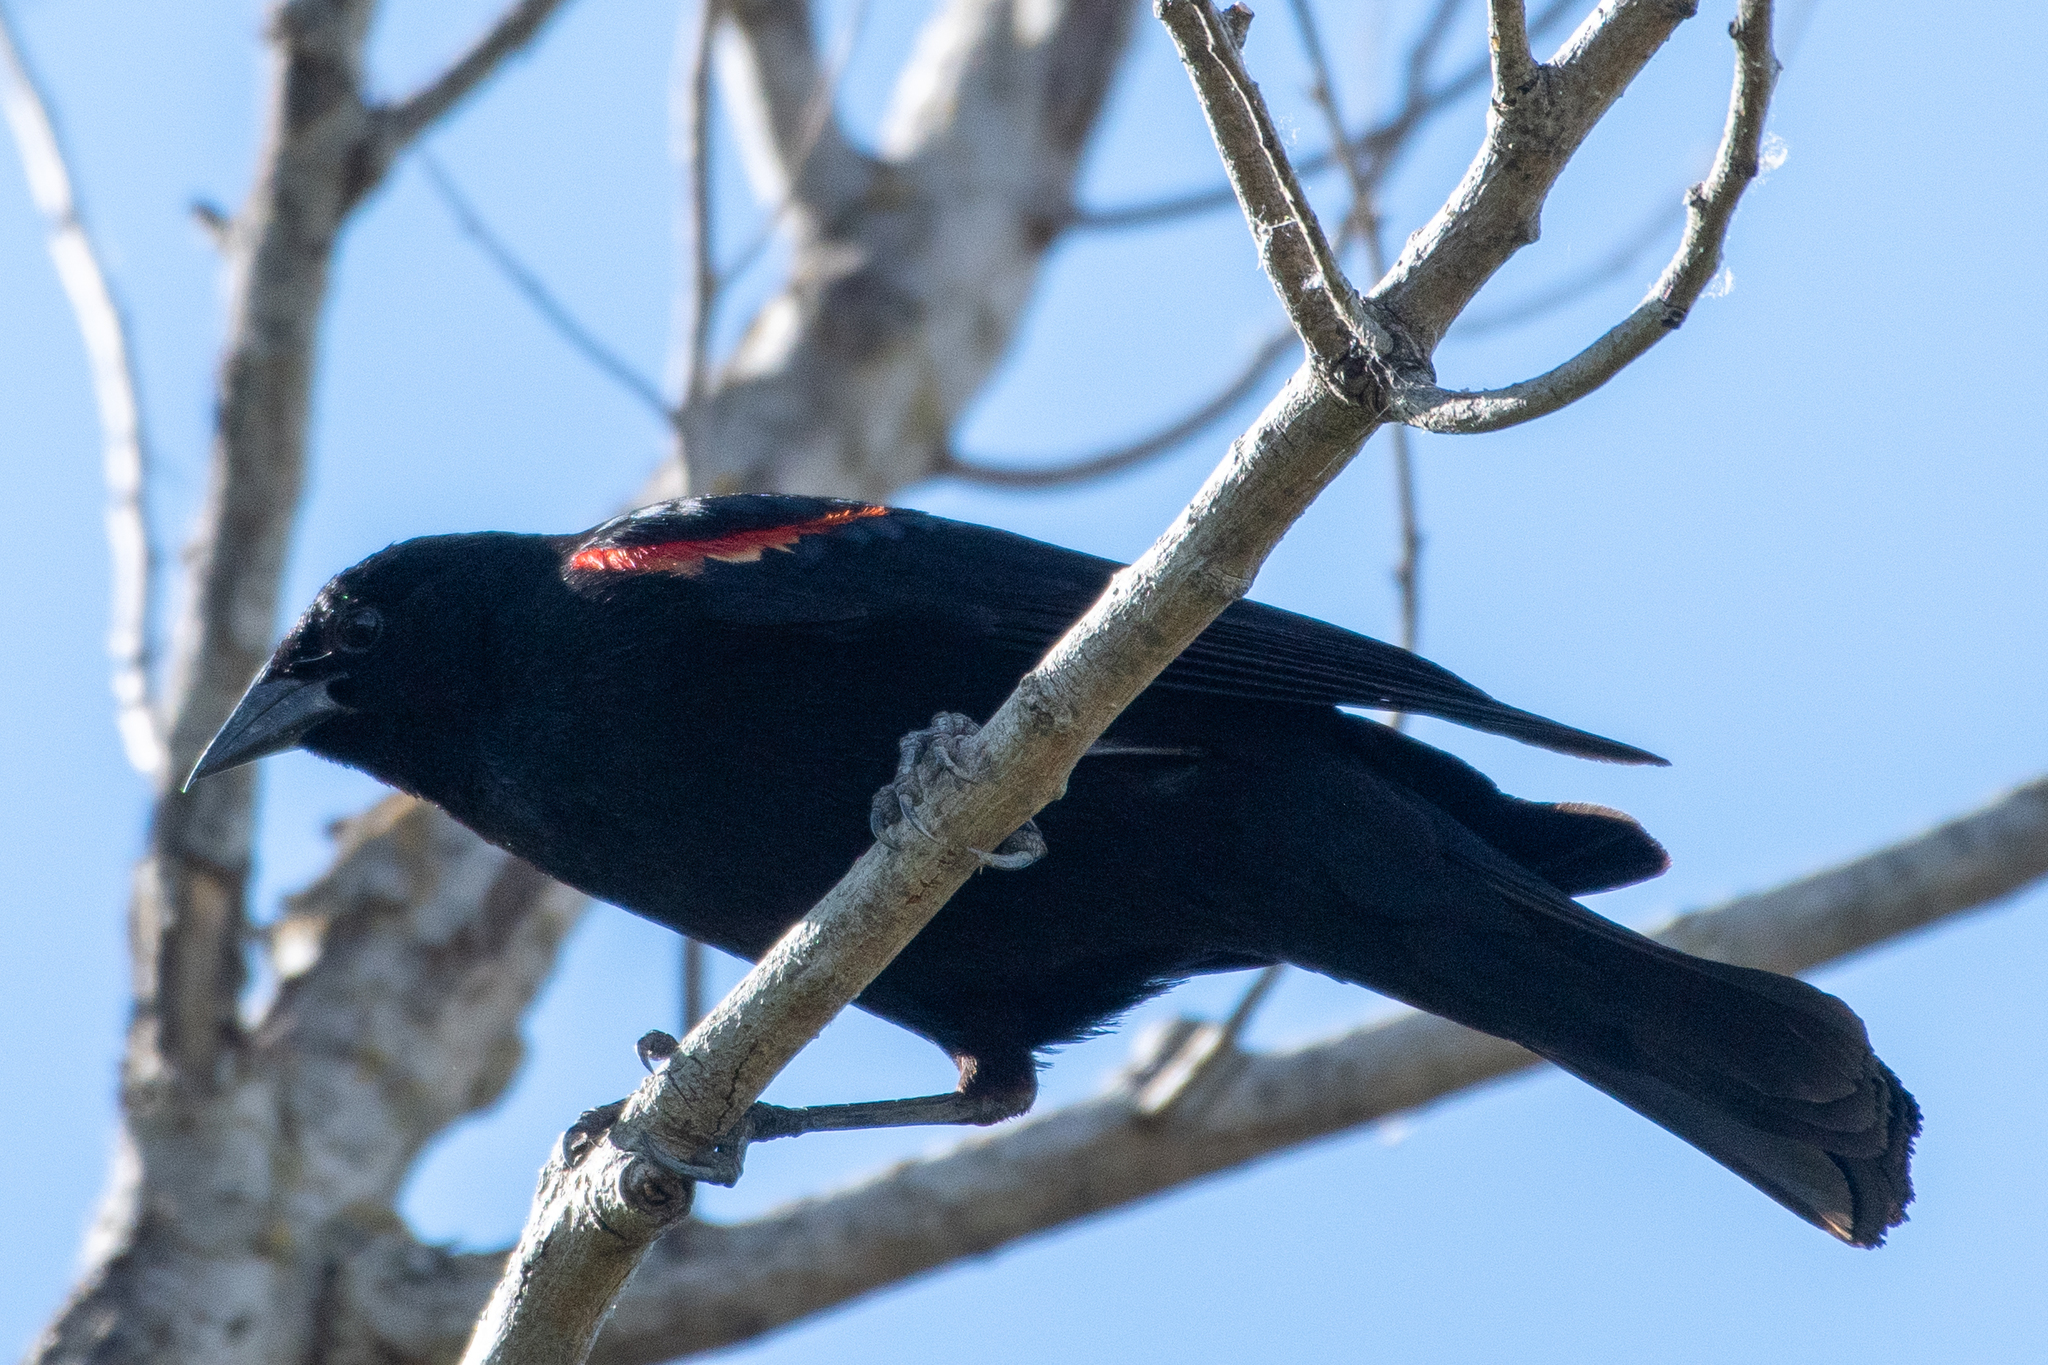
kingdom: Animalia
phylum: Chordata
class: Aves
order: Passeriformes
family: Icteridae
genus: Agelaius
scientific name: Agelaius phoeniceus
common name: Red-winged blackbird
